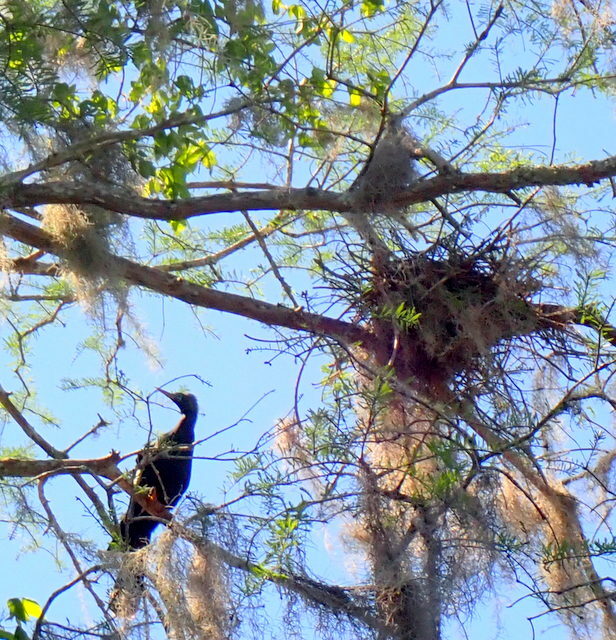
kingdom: Animalia
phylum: Chordata
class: Aves
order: Suliformes
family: Anhingidae
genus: Anhinga
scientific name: Anhinga anhinga
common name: Anhinga
